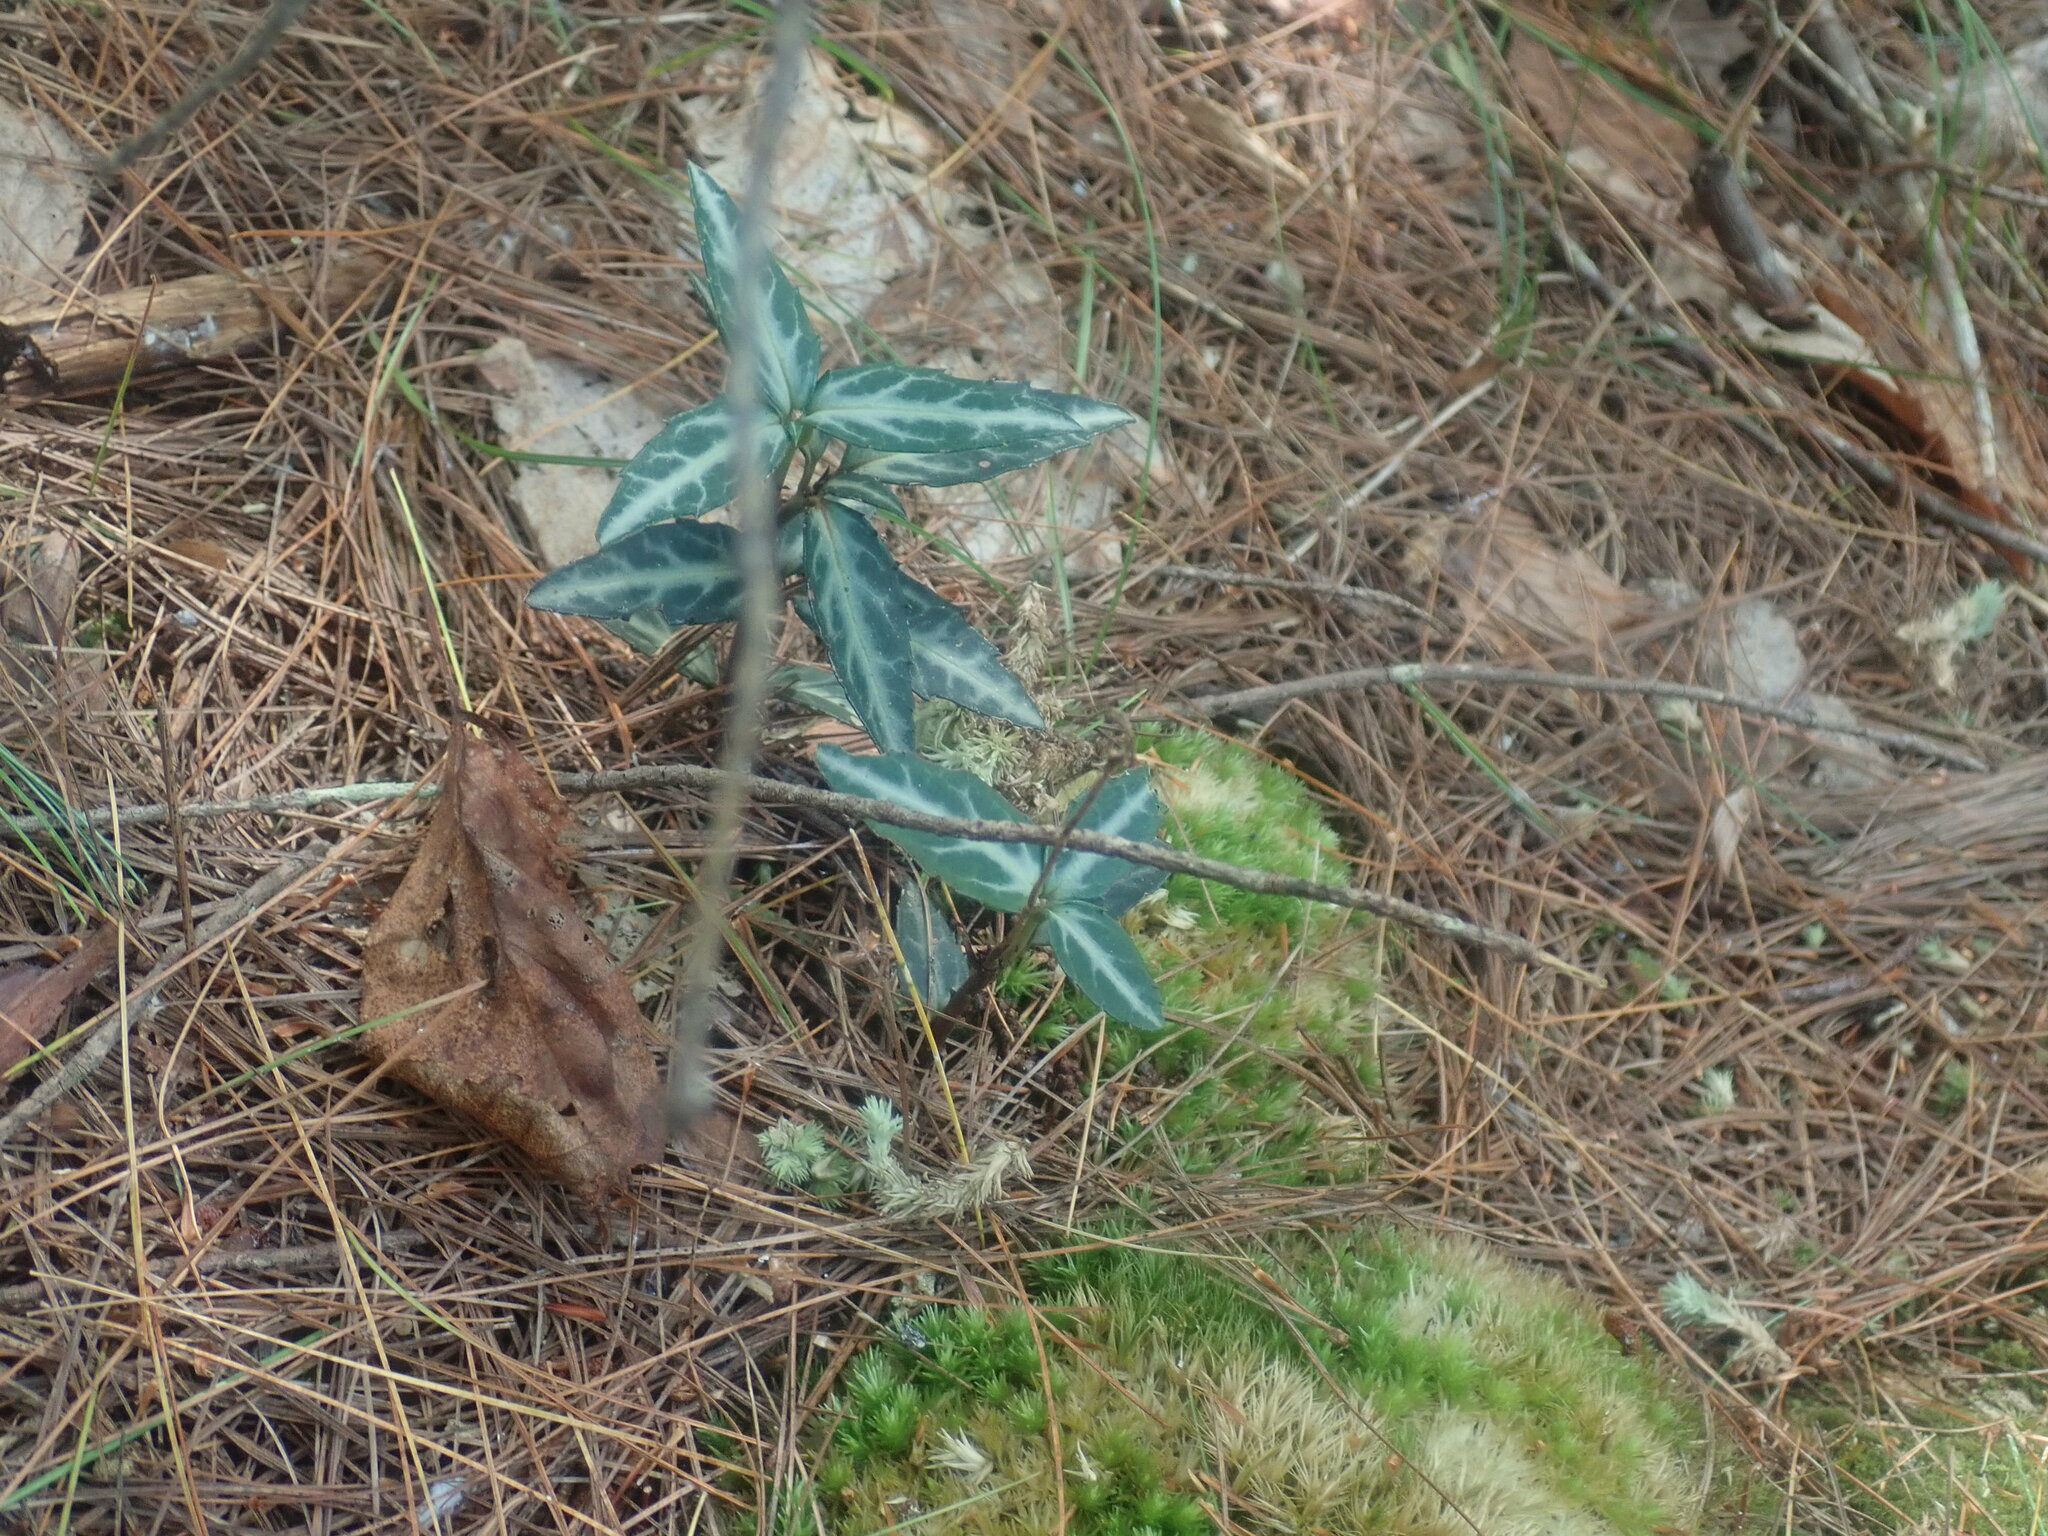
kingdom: Plantae
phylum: Tracheophyta
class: Magnoliopsida
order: Ericales
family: Ericaceae
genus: Chimaphila
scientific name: Chimaphila maculata
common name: Spotted pipsissewa
